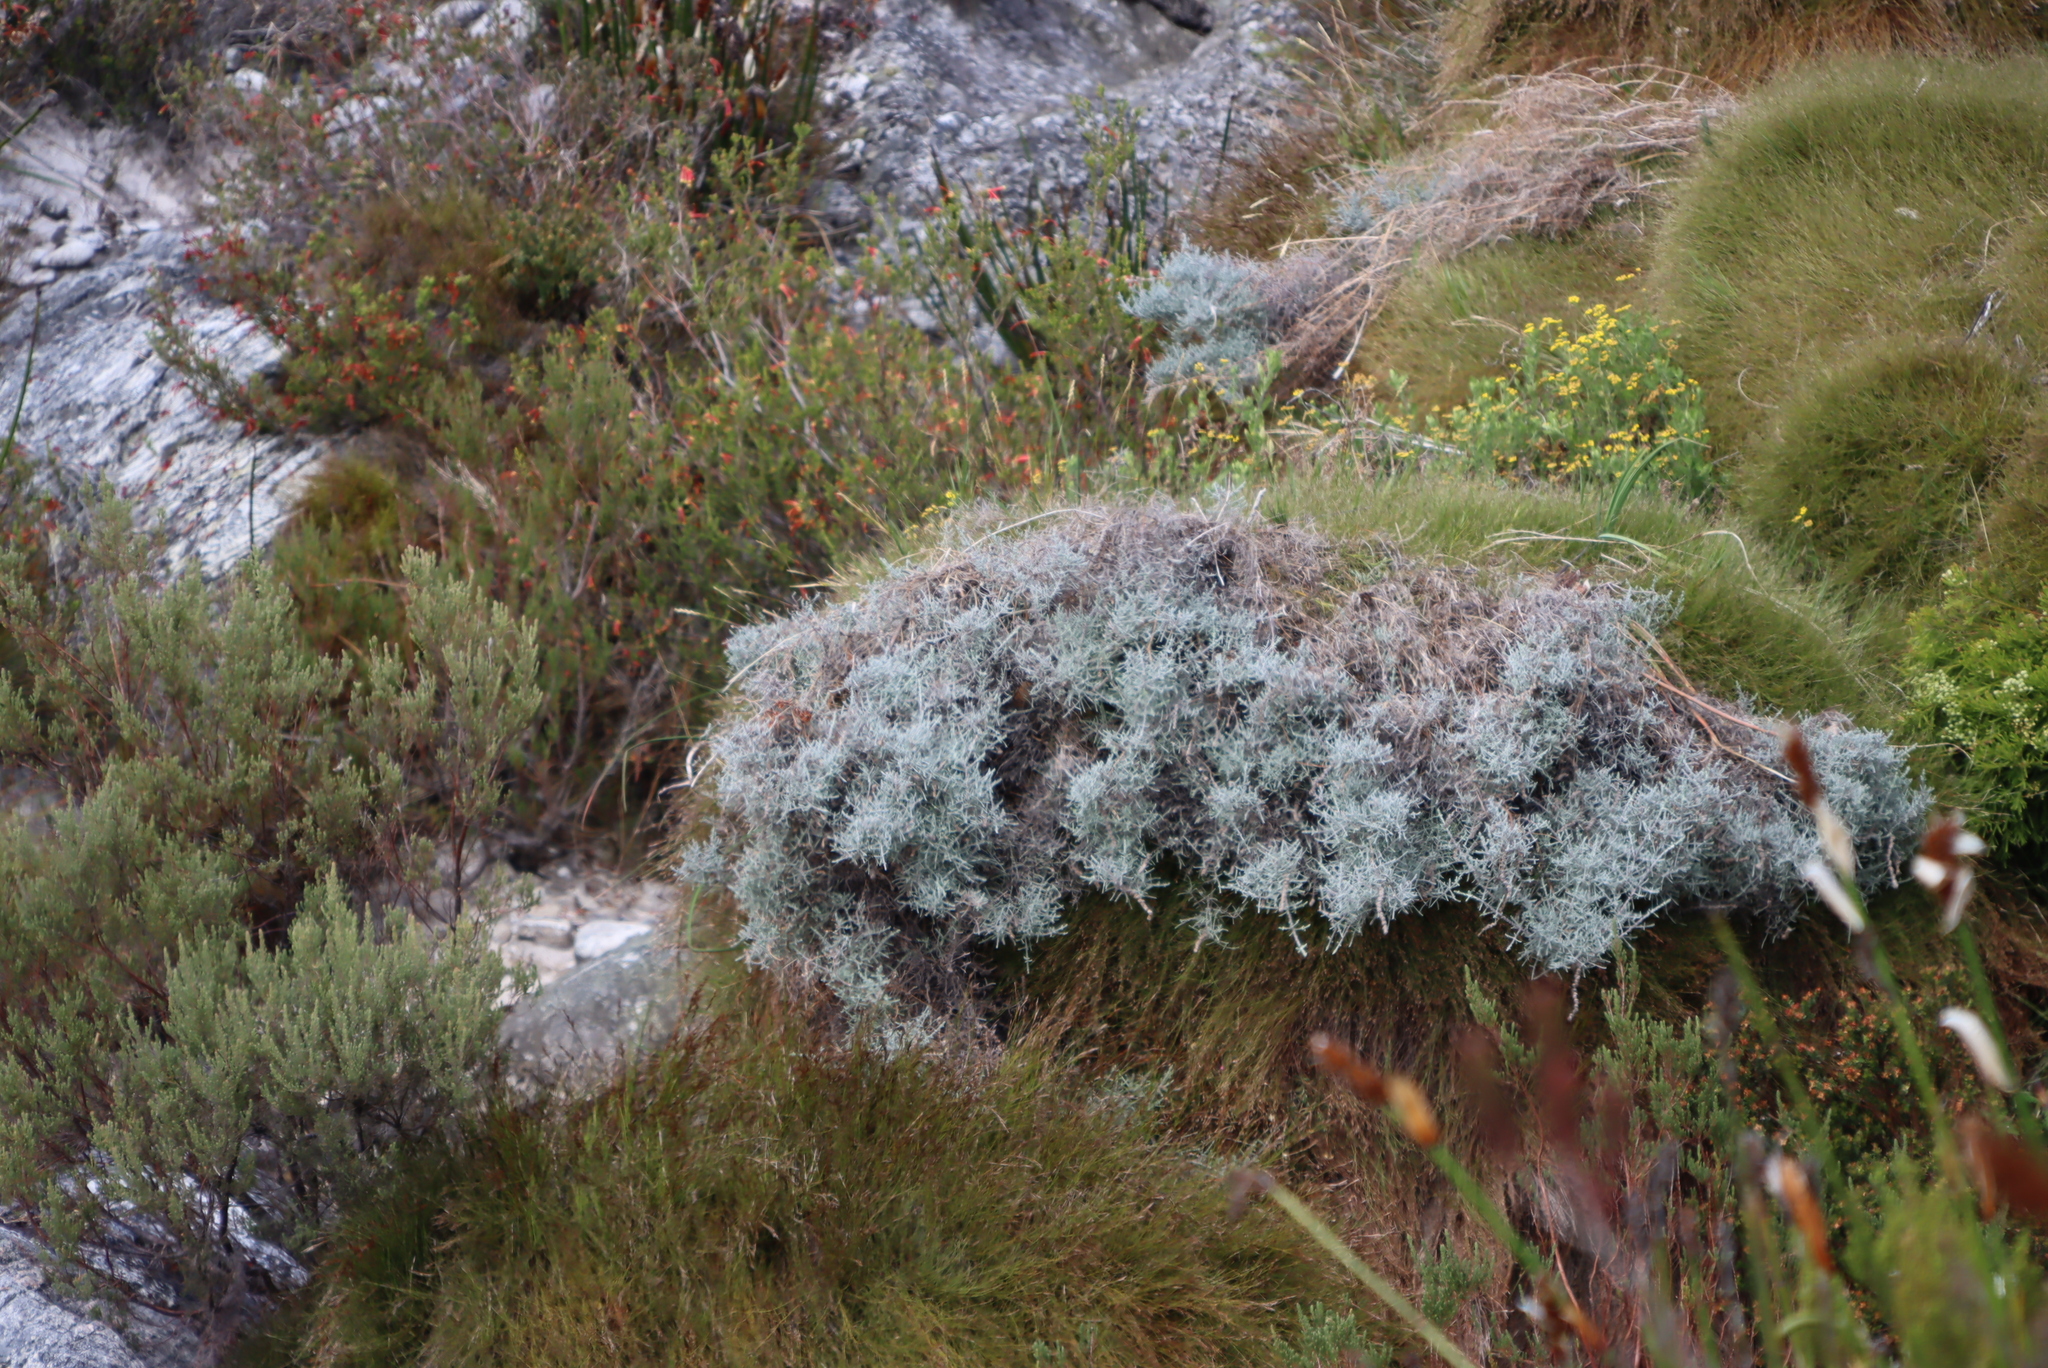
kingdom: Plantae
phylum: Tracheophyta
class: Magnoliopsida
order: Asterales
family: Asteraceae
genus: Seriphium
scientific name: Seriphium plumosum
